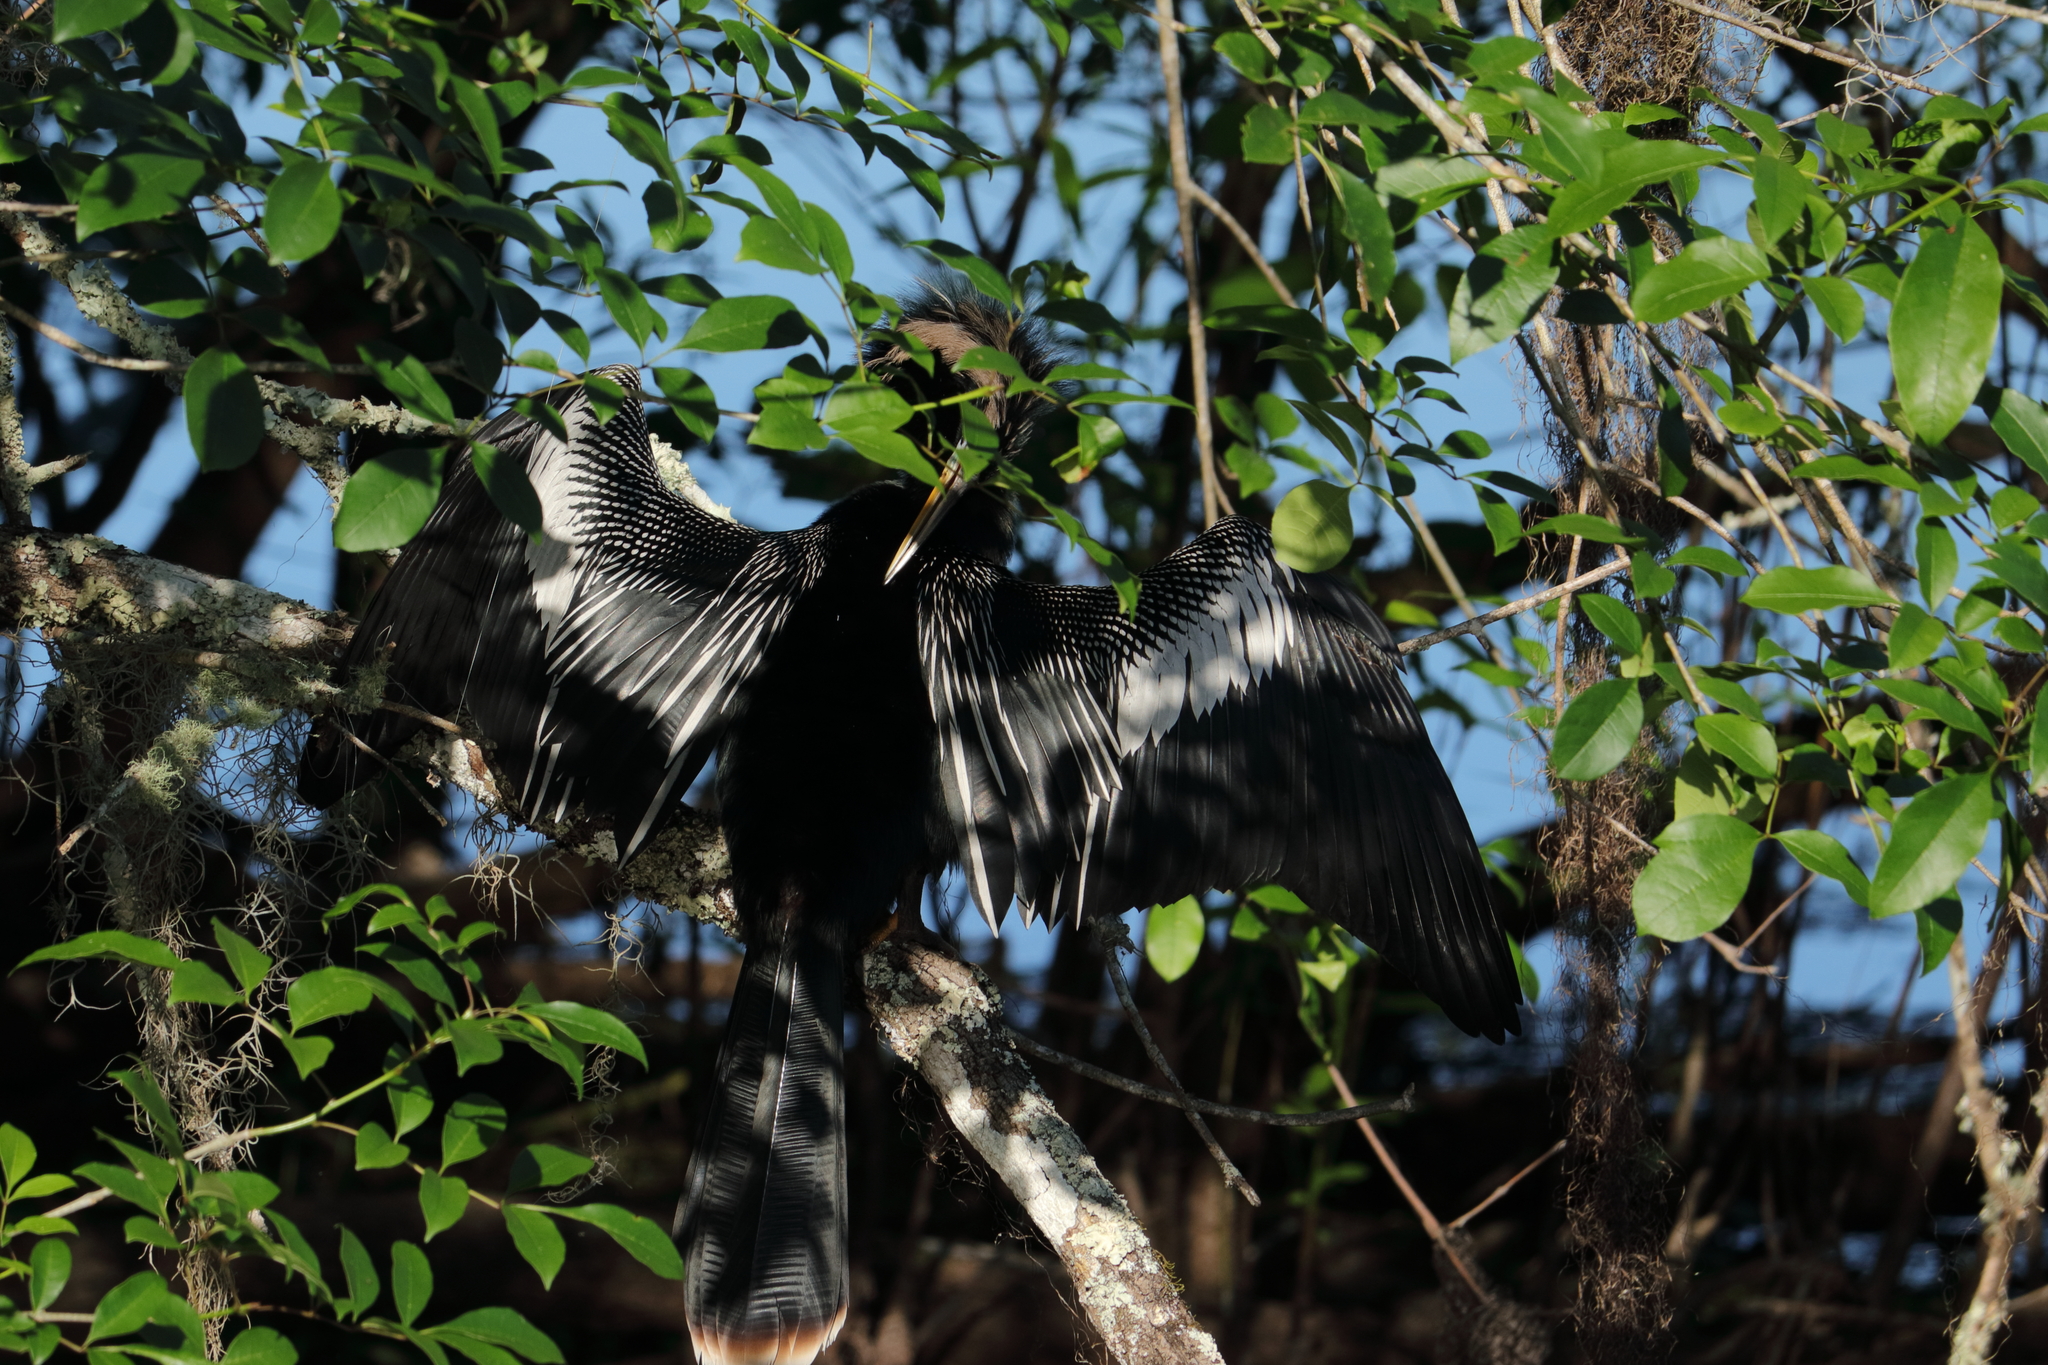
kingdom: Animalia
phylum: Chordata
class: Aves
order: Suliformes
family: Anhingidae
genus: Anhinga
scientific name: Anhinga anhinga
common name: Anhinga
